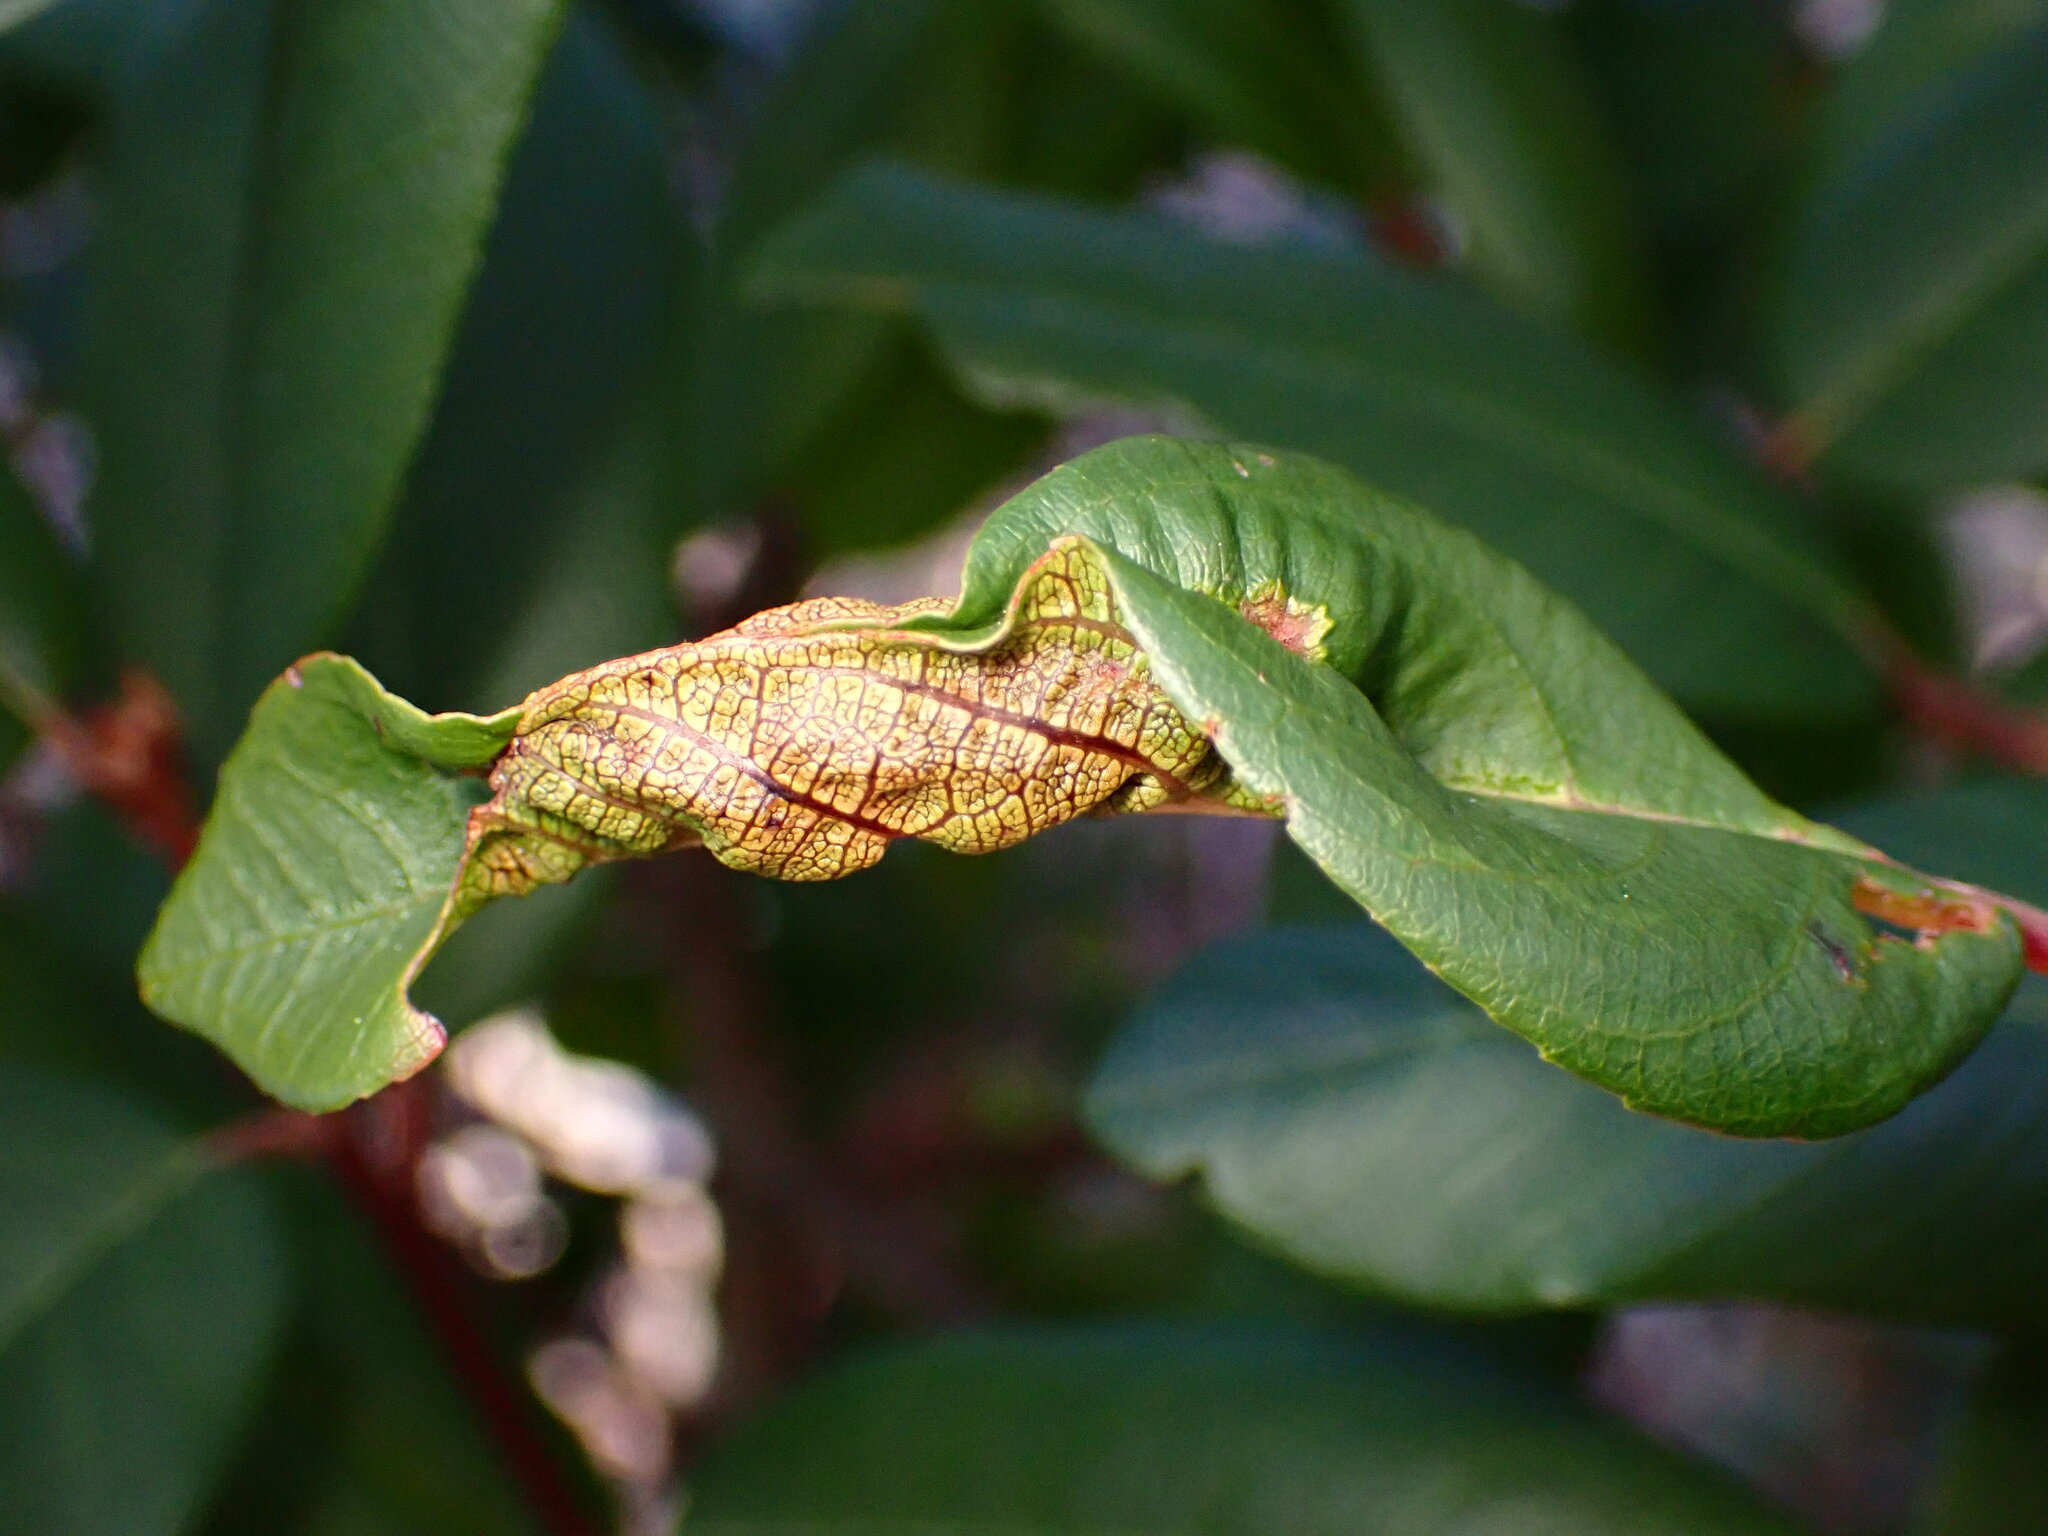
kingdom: Animalia
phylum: Arthropoda
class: Insecta
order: Lepidoptera
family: Cosmopterigidae
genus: Sorhagenia
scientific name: Sorhagenia nimbosus
